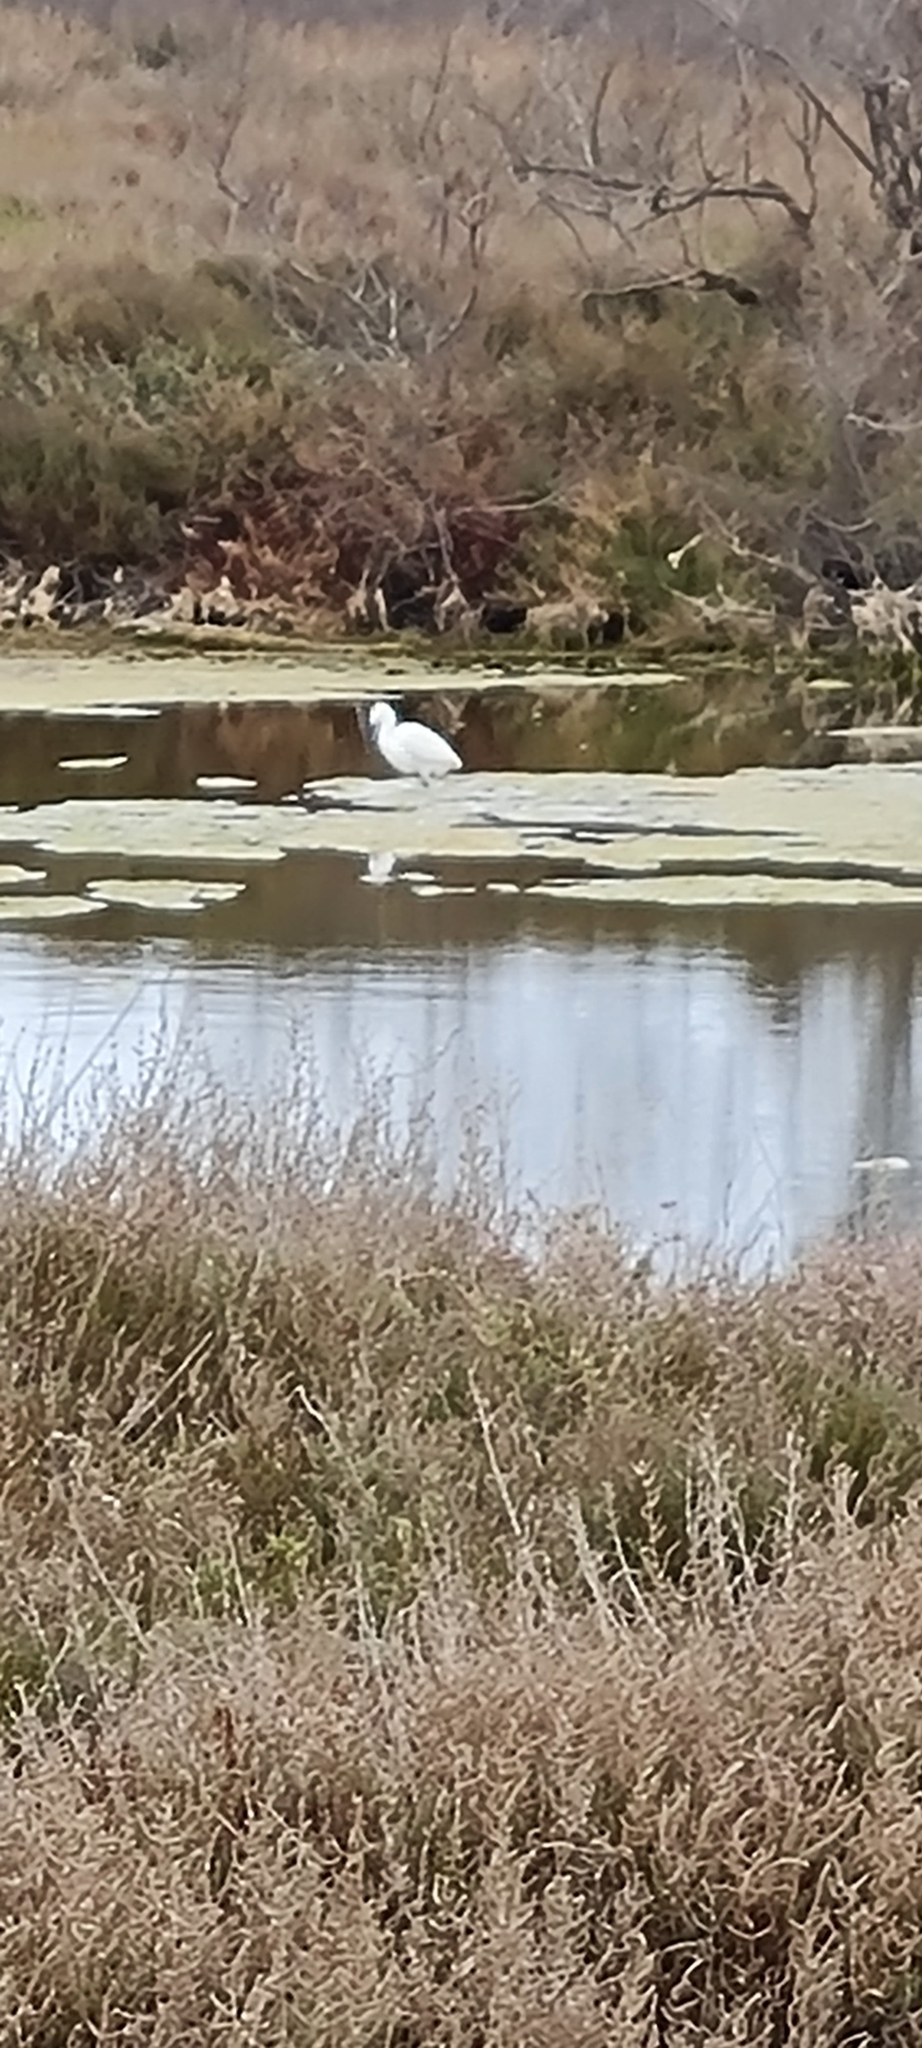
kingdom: Animalia
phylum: Chordata
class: Aves
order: Pelecaniformes
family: Ardeidae
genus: Egretta
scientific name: Egretta garzetta
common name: Little egret
